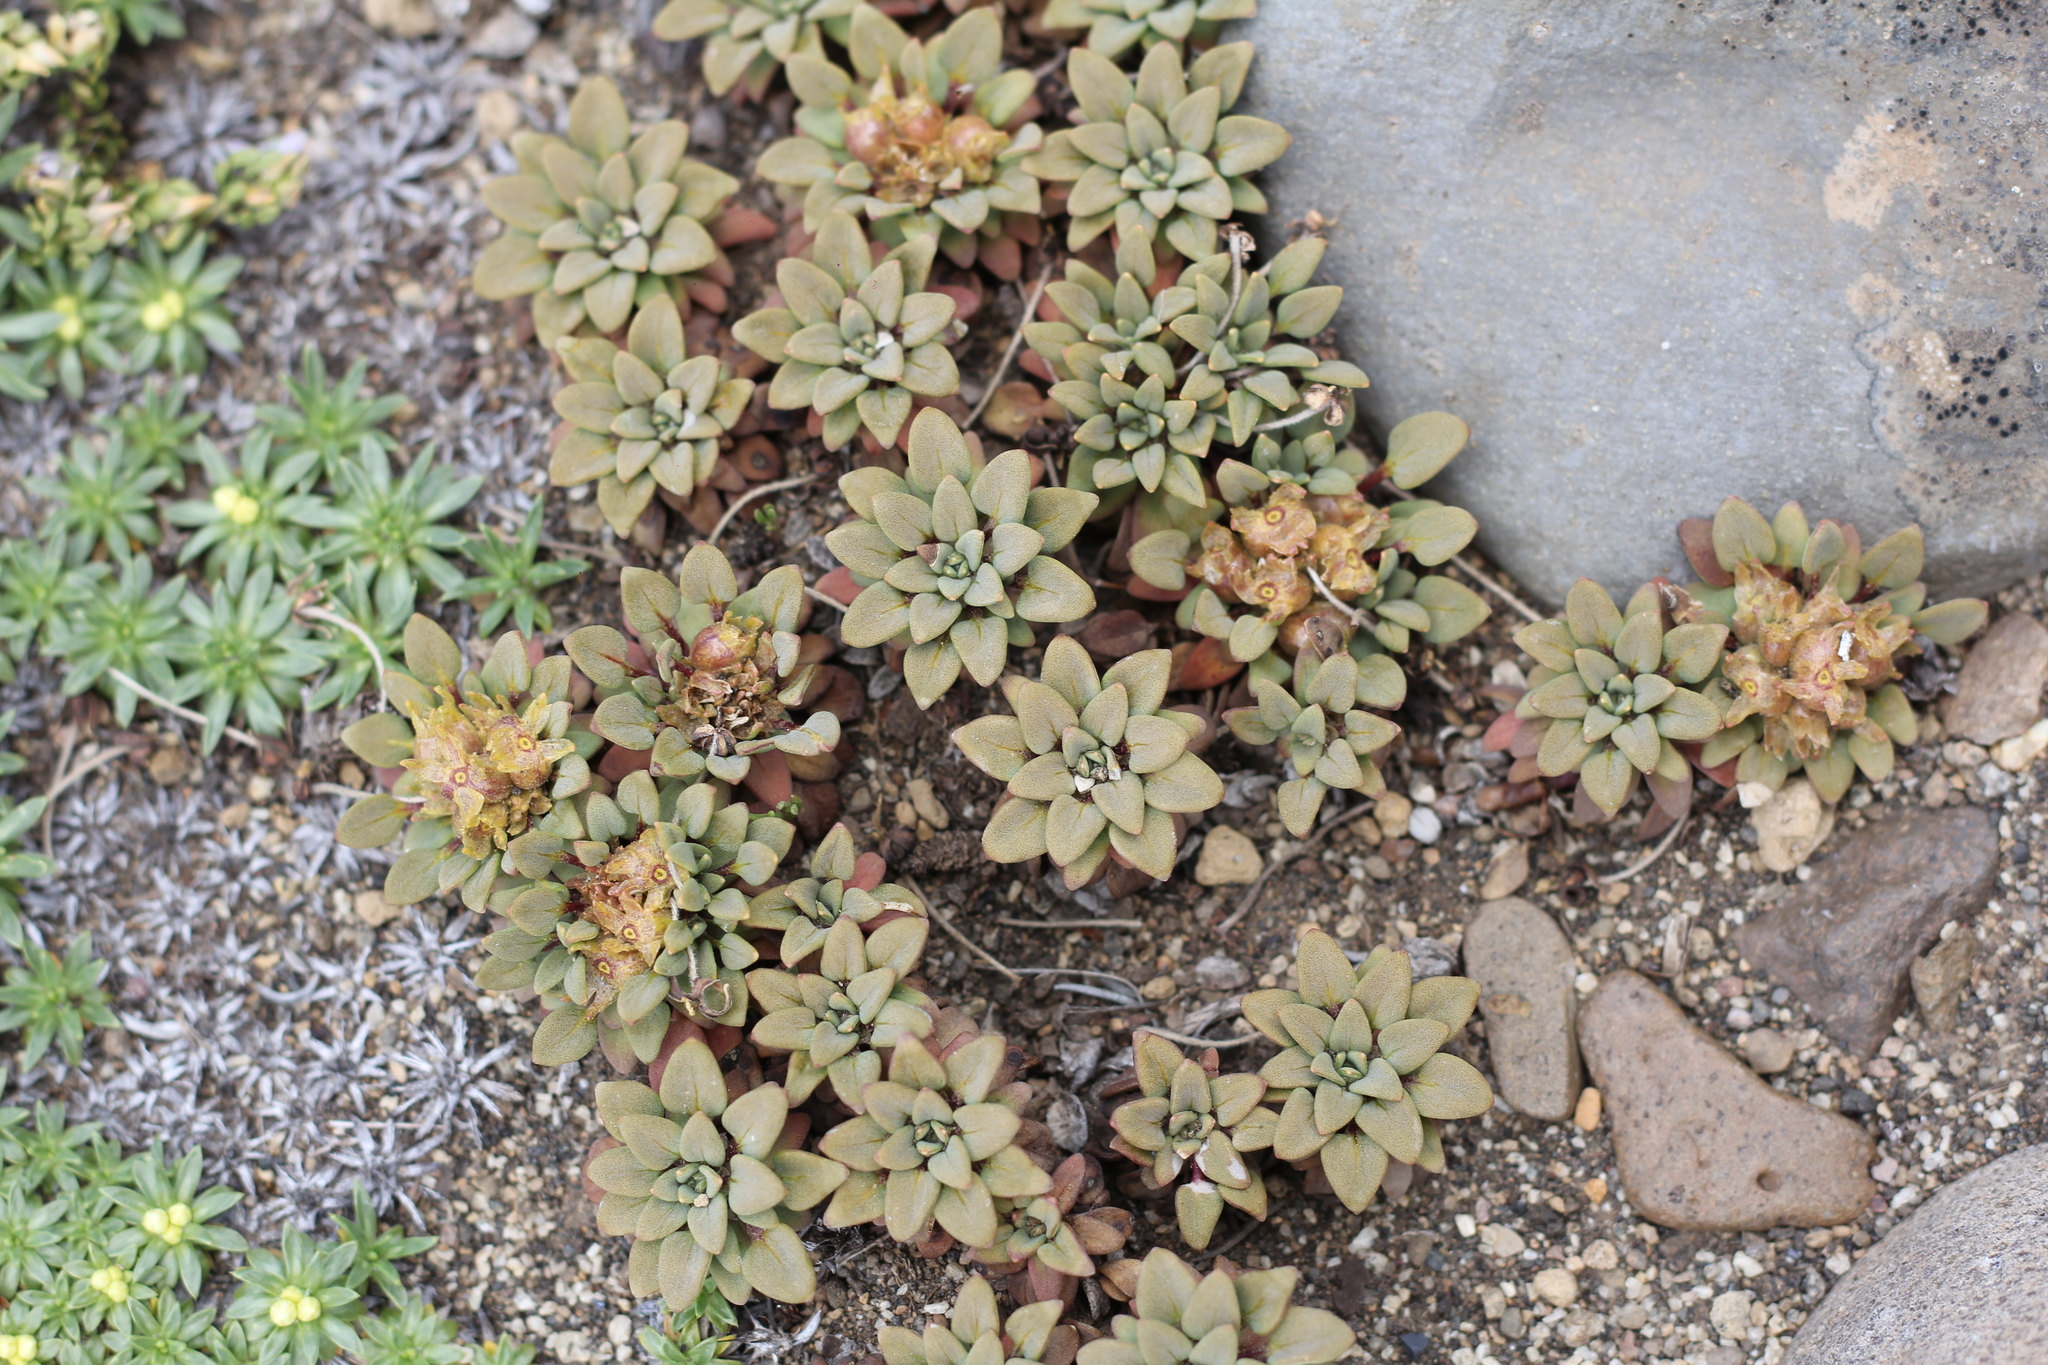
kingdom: Plantae
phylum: Tracheophyta
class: Magnoliopsida
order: Gentianales
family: Rubiaceae
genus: Oreopolus
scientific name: Oreopolus glacialis
